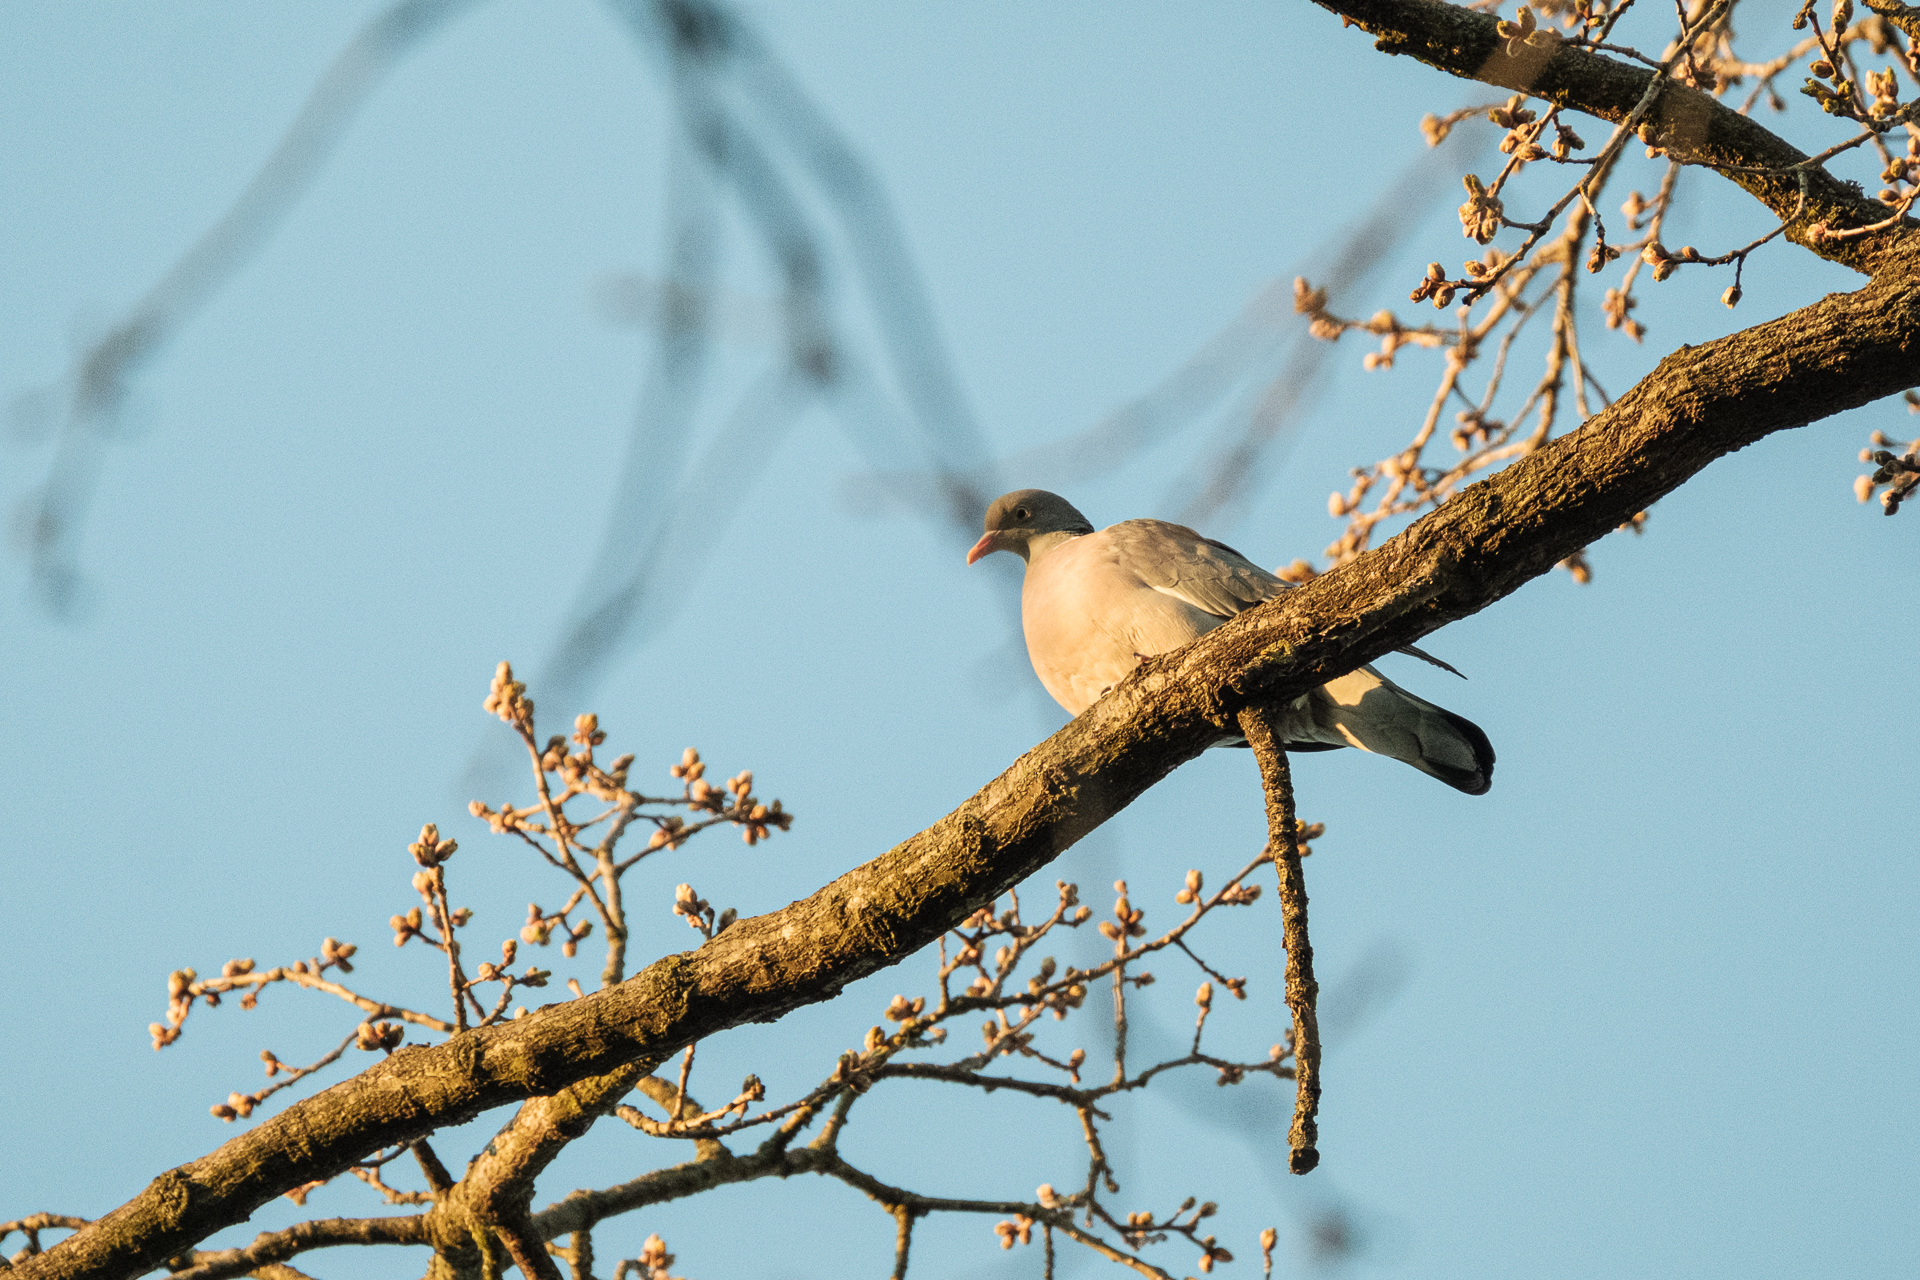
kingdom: Animalia
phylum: Chordata
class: Aves
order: Columbiformes
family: Columbidae
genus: Columba
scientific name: Columba palumbus
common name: Common wood pigeon
